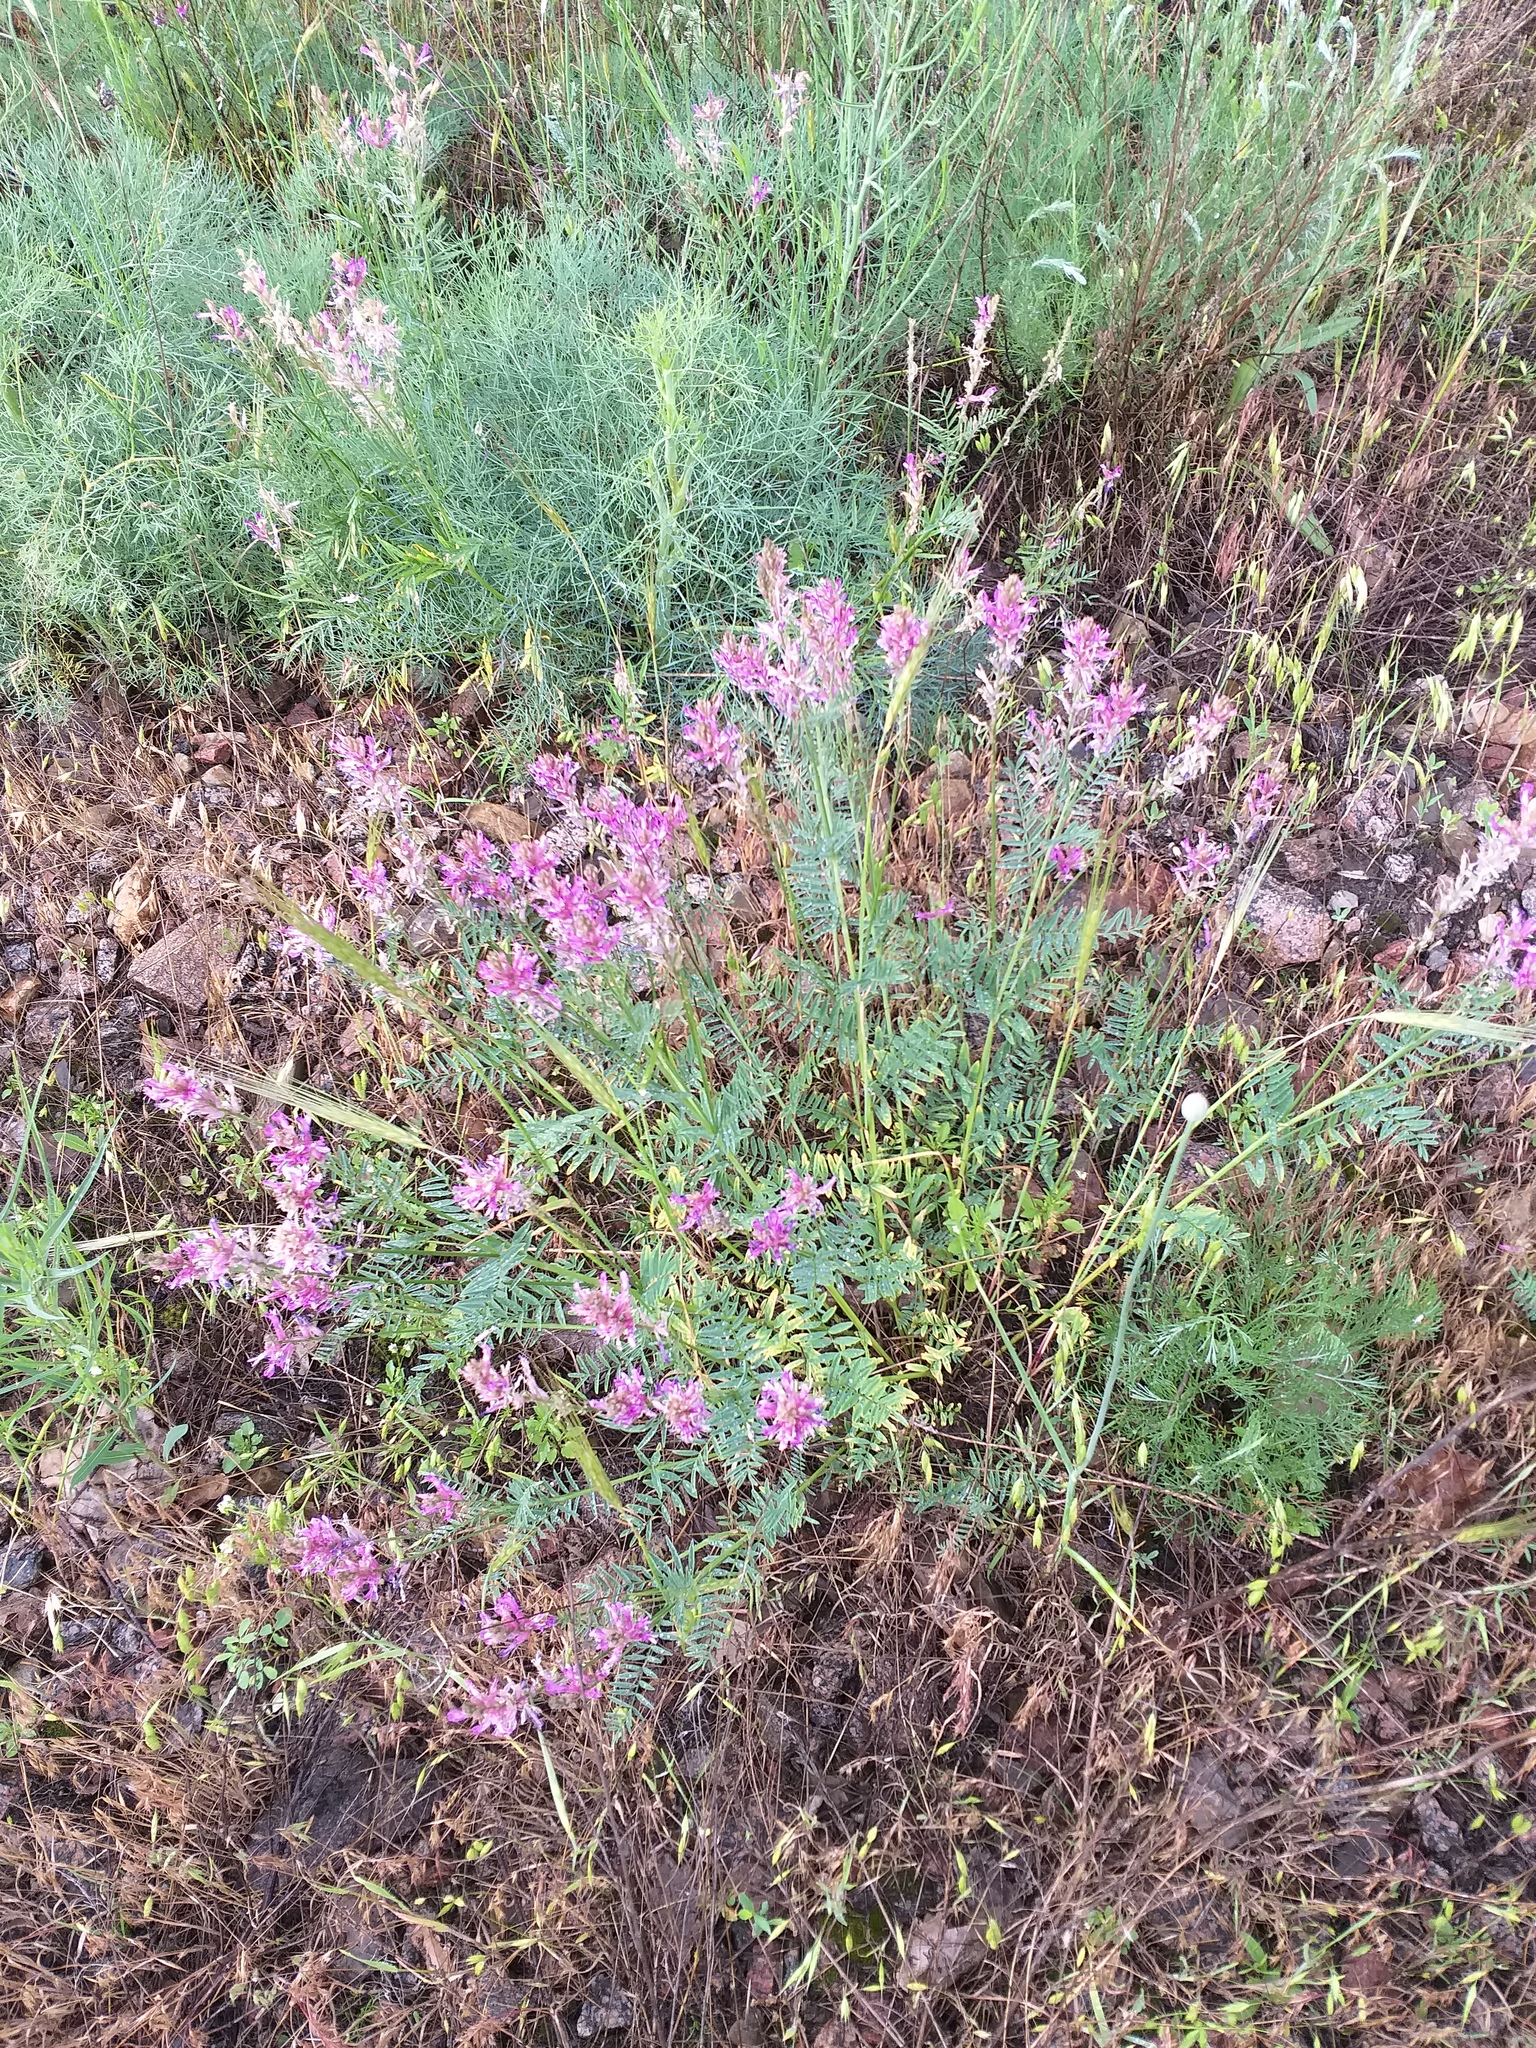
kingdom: Plantae
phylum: Tracheophyta
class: Magnoliopsida
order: Fabales
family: Fabaceae
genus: Astragalus
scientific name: Astragalus varius
